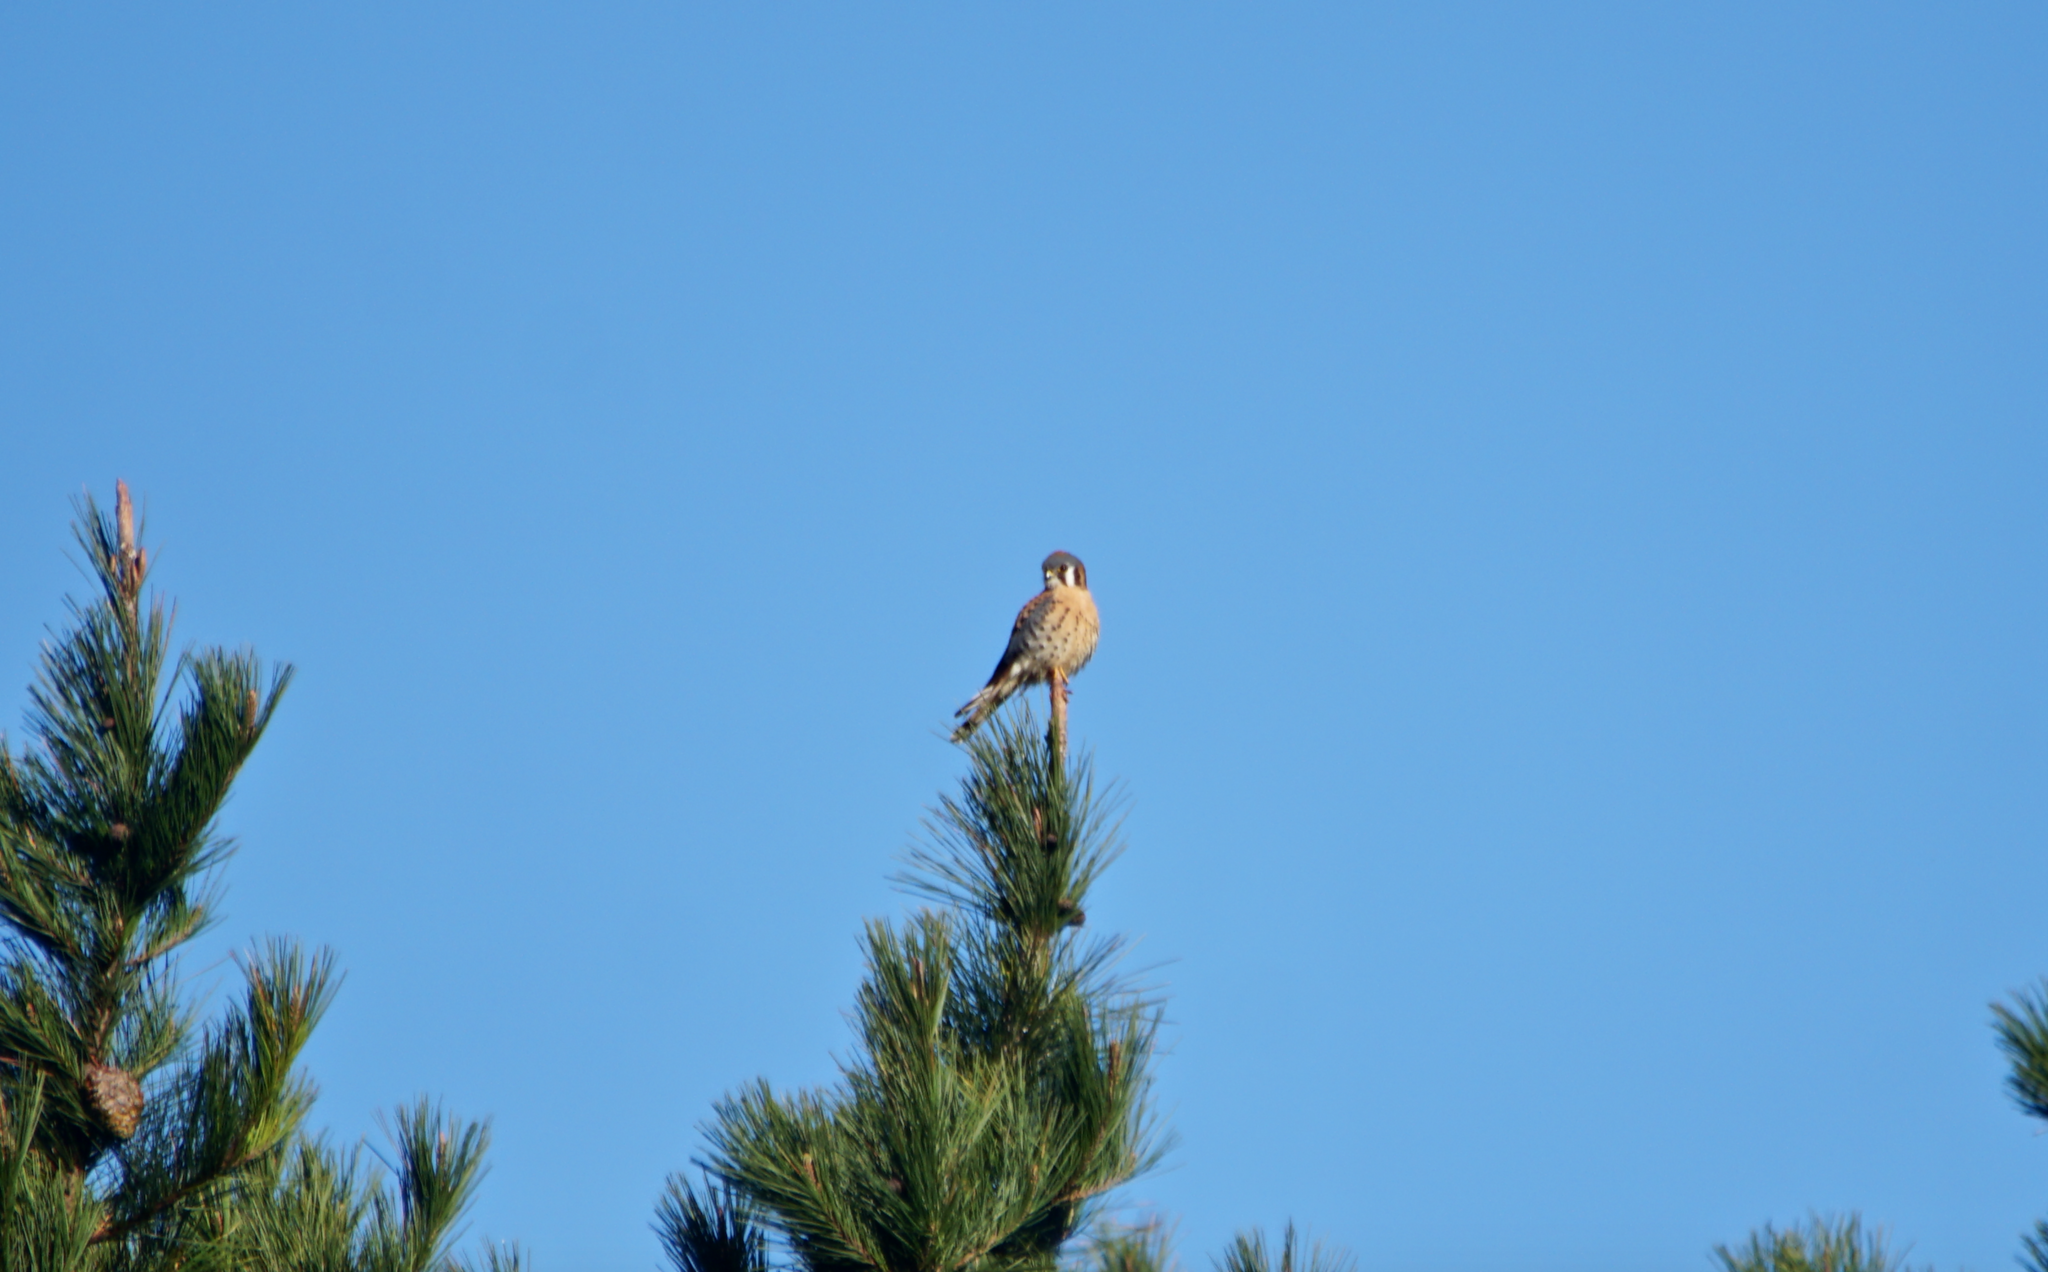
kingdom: Animalia
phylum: Chordata
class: Aves
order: Falconiformes
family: Falconidae
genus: Falco
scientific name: Falco sparverius
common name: American kestrel
